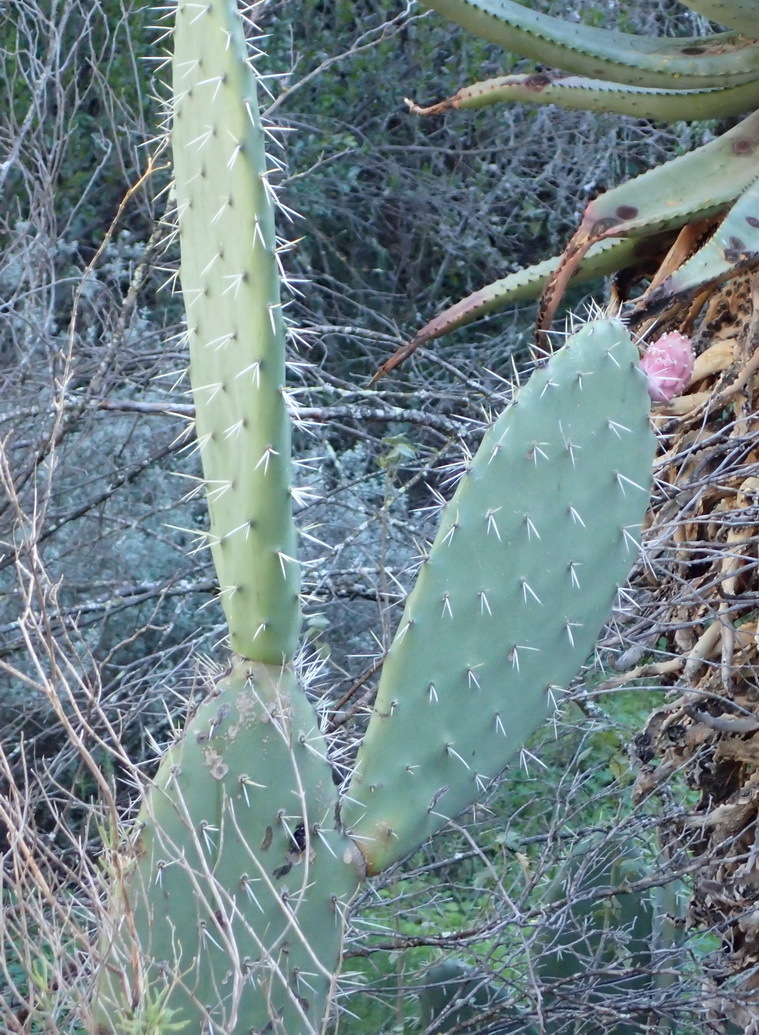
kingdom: Plantae
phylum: Tracheophyta
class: Magnoliopsida
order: Caryophyllales
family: Cactaceae
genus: Opuntia
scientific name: Opuntia ficus-indica
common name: Barbary fig
